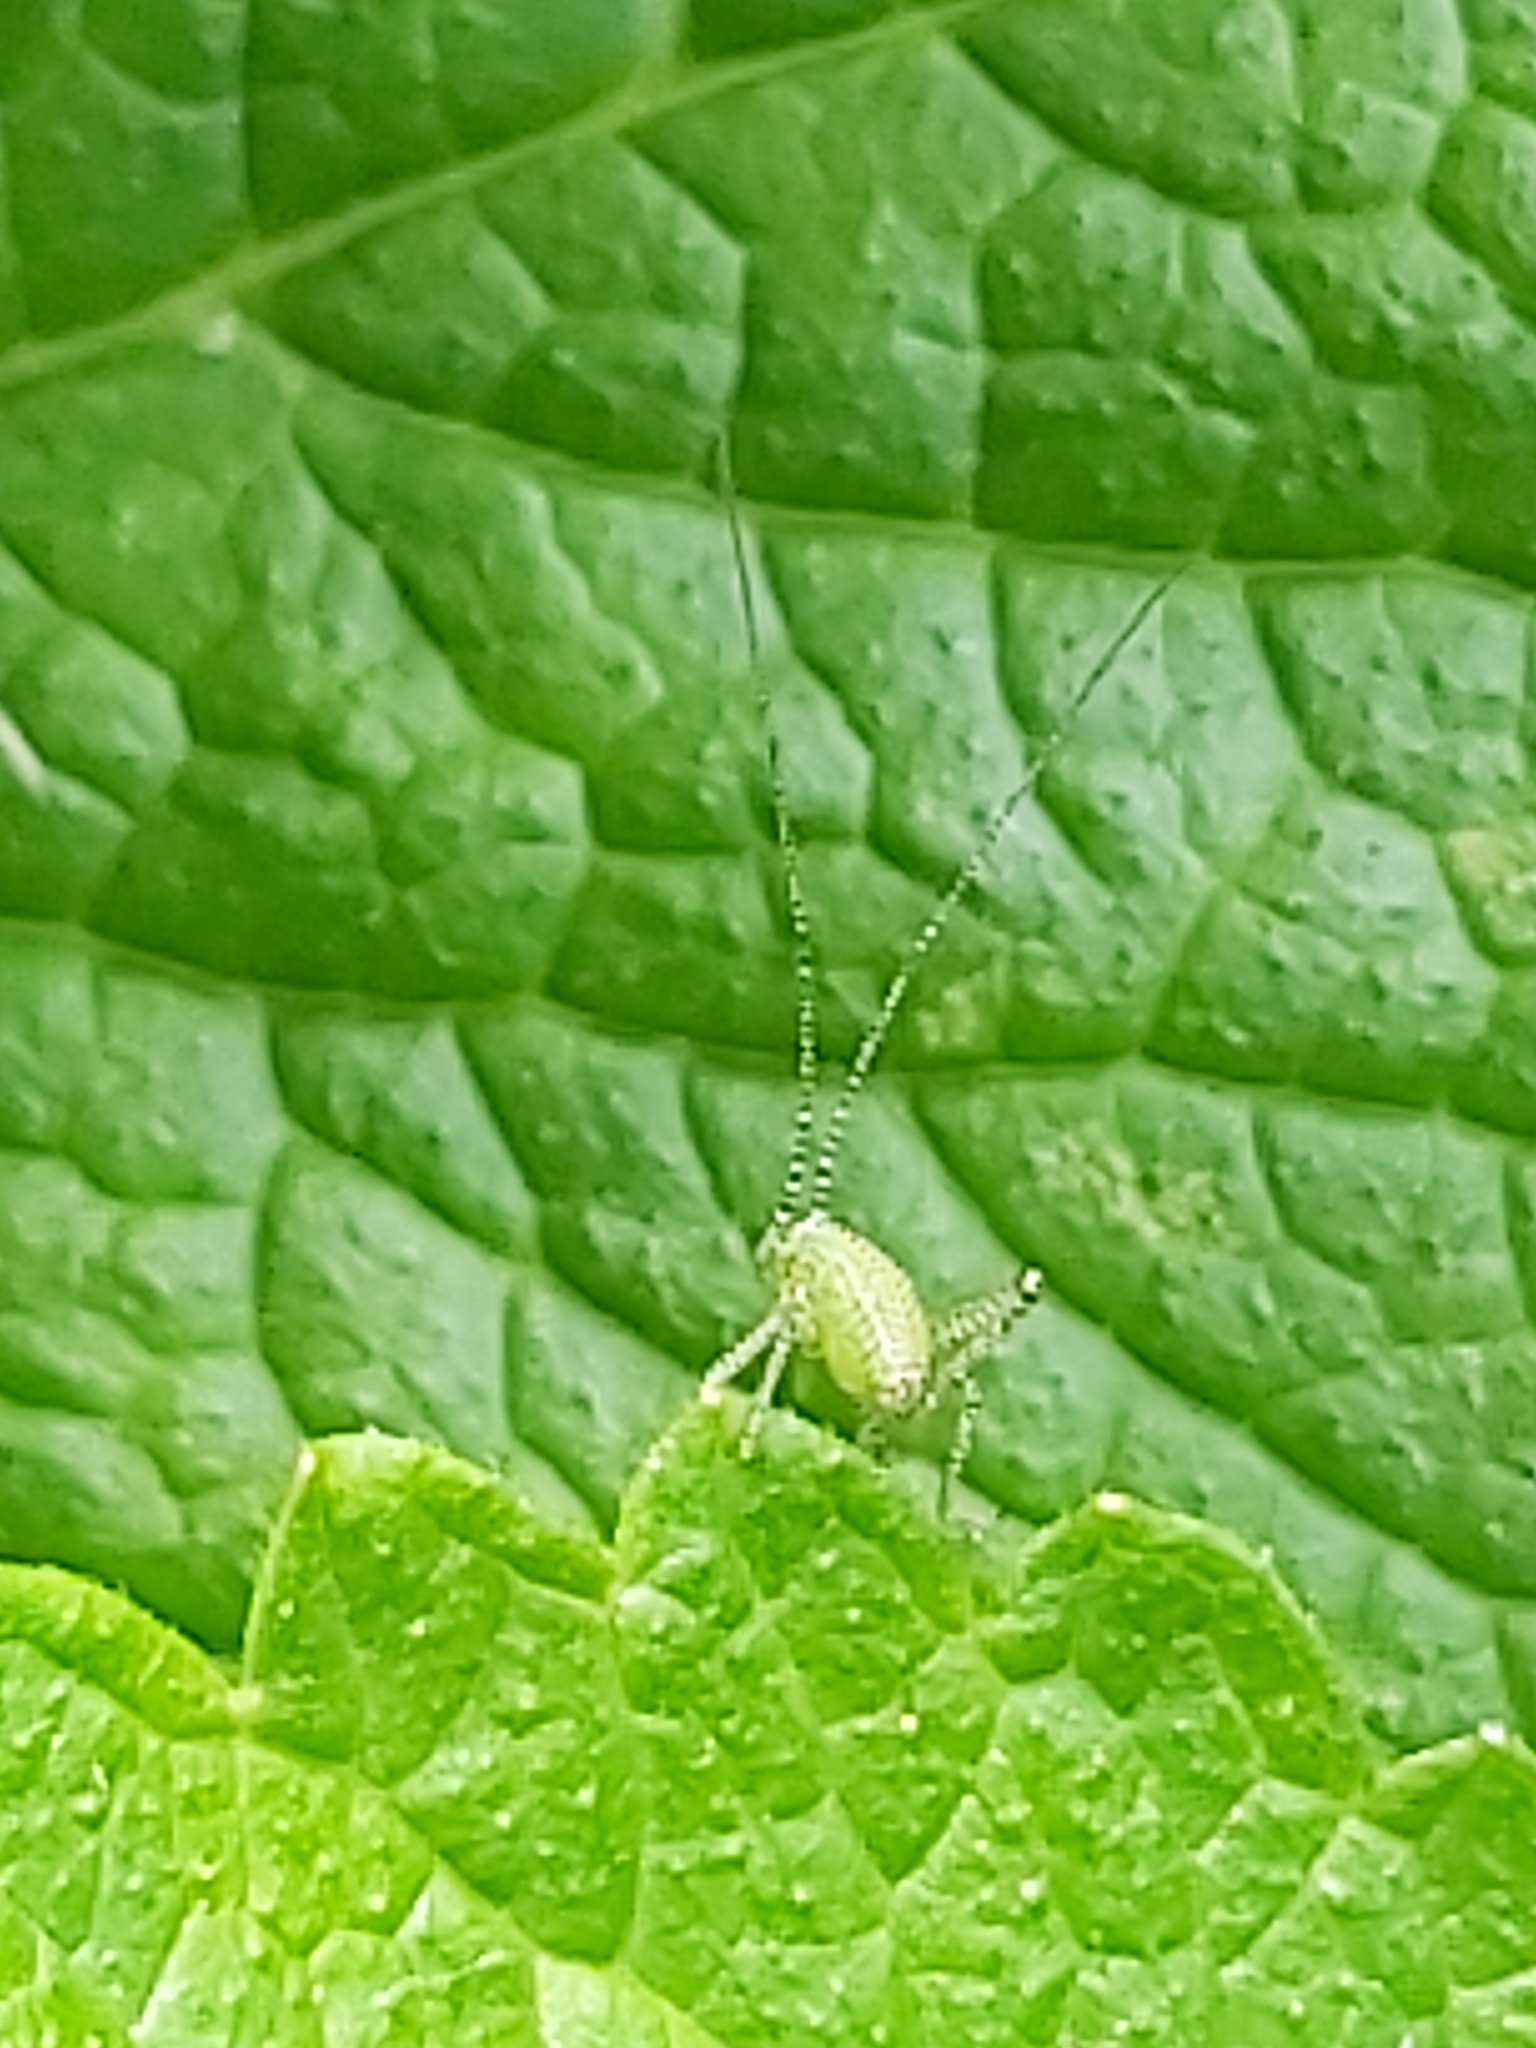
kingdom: Animalia
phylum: Arthropoda
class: Insecta
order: Orthoptera
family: Tettigoniidae
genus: Leptophyes
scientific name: Leptophyes punctatissima
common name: Speckled bush-cricket
